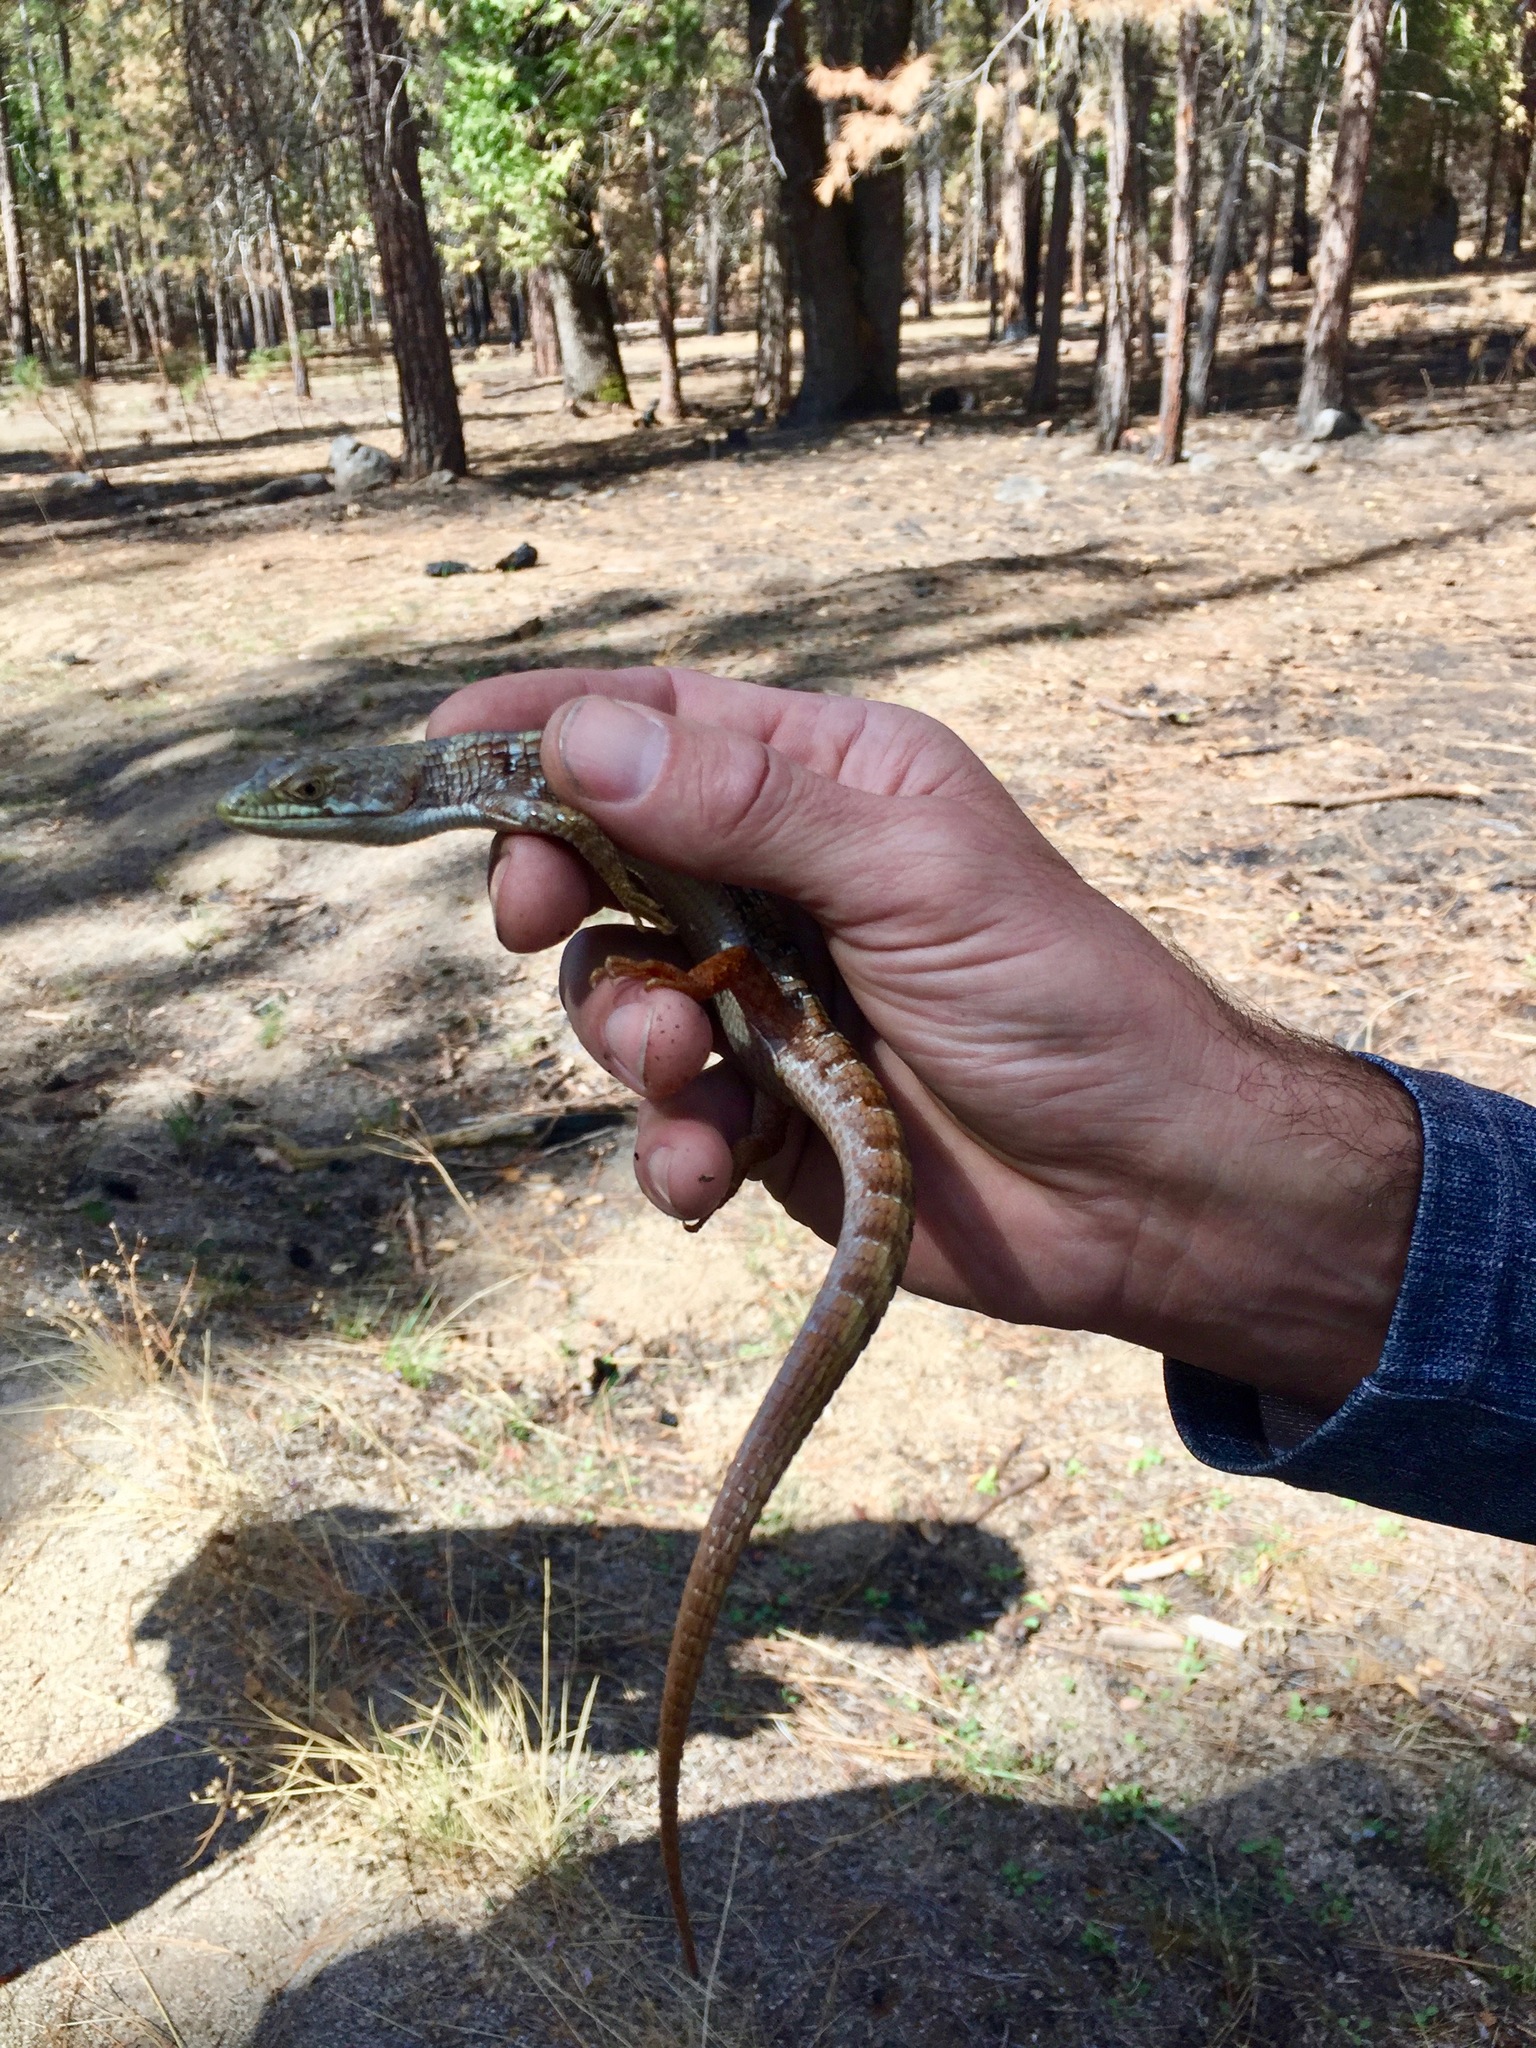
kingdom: Animalia
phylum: Chordata
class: Squamata
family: Anguidae
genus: Elgaria
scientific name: Elgaria multicarinata
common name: Southern alligator lizard
